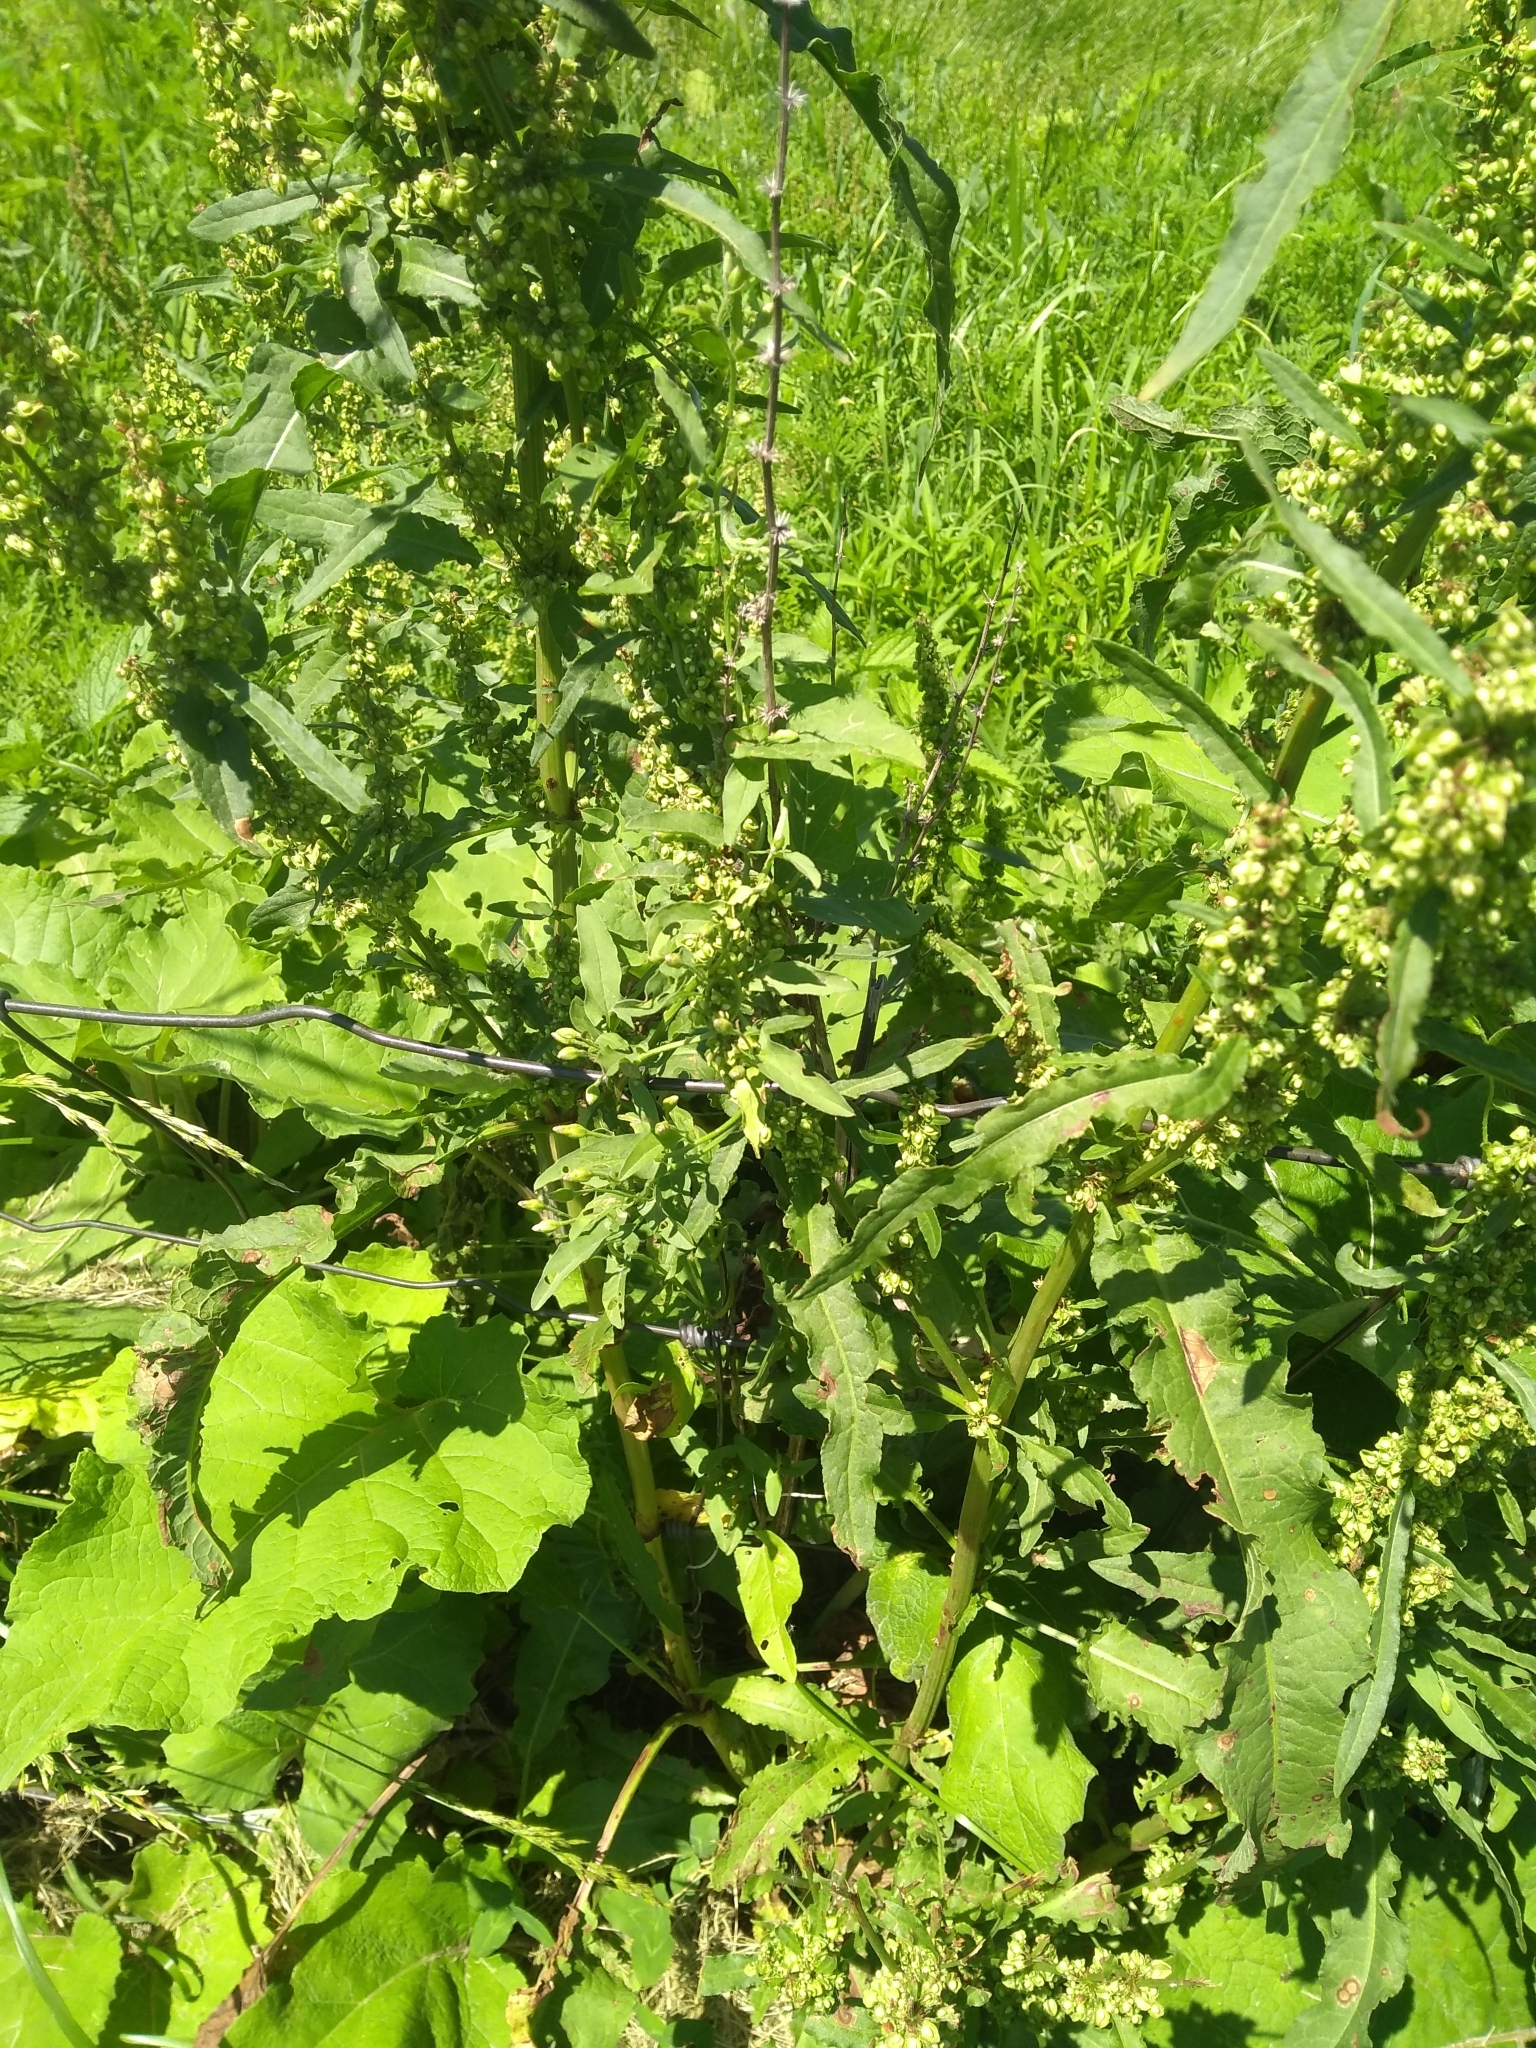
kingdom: Plantae
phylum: Tracheophyta
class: Magnoliopsida
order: Caryophyllales
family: Polygonaceae
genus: Rumex
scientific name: Rumex crispus
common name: Curled dock
